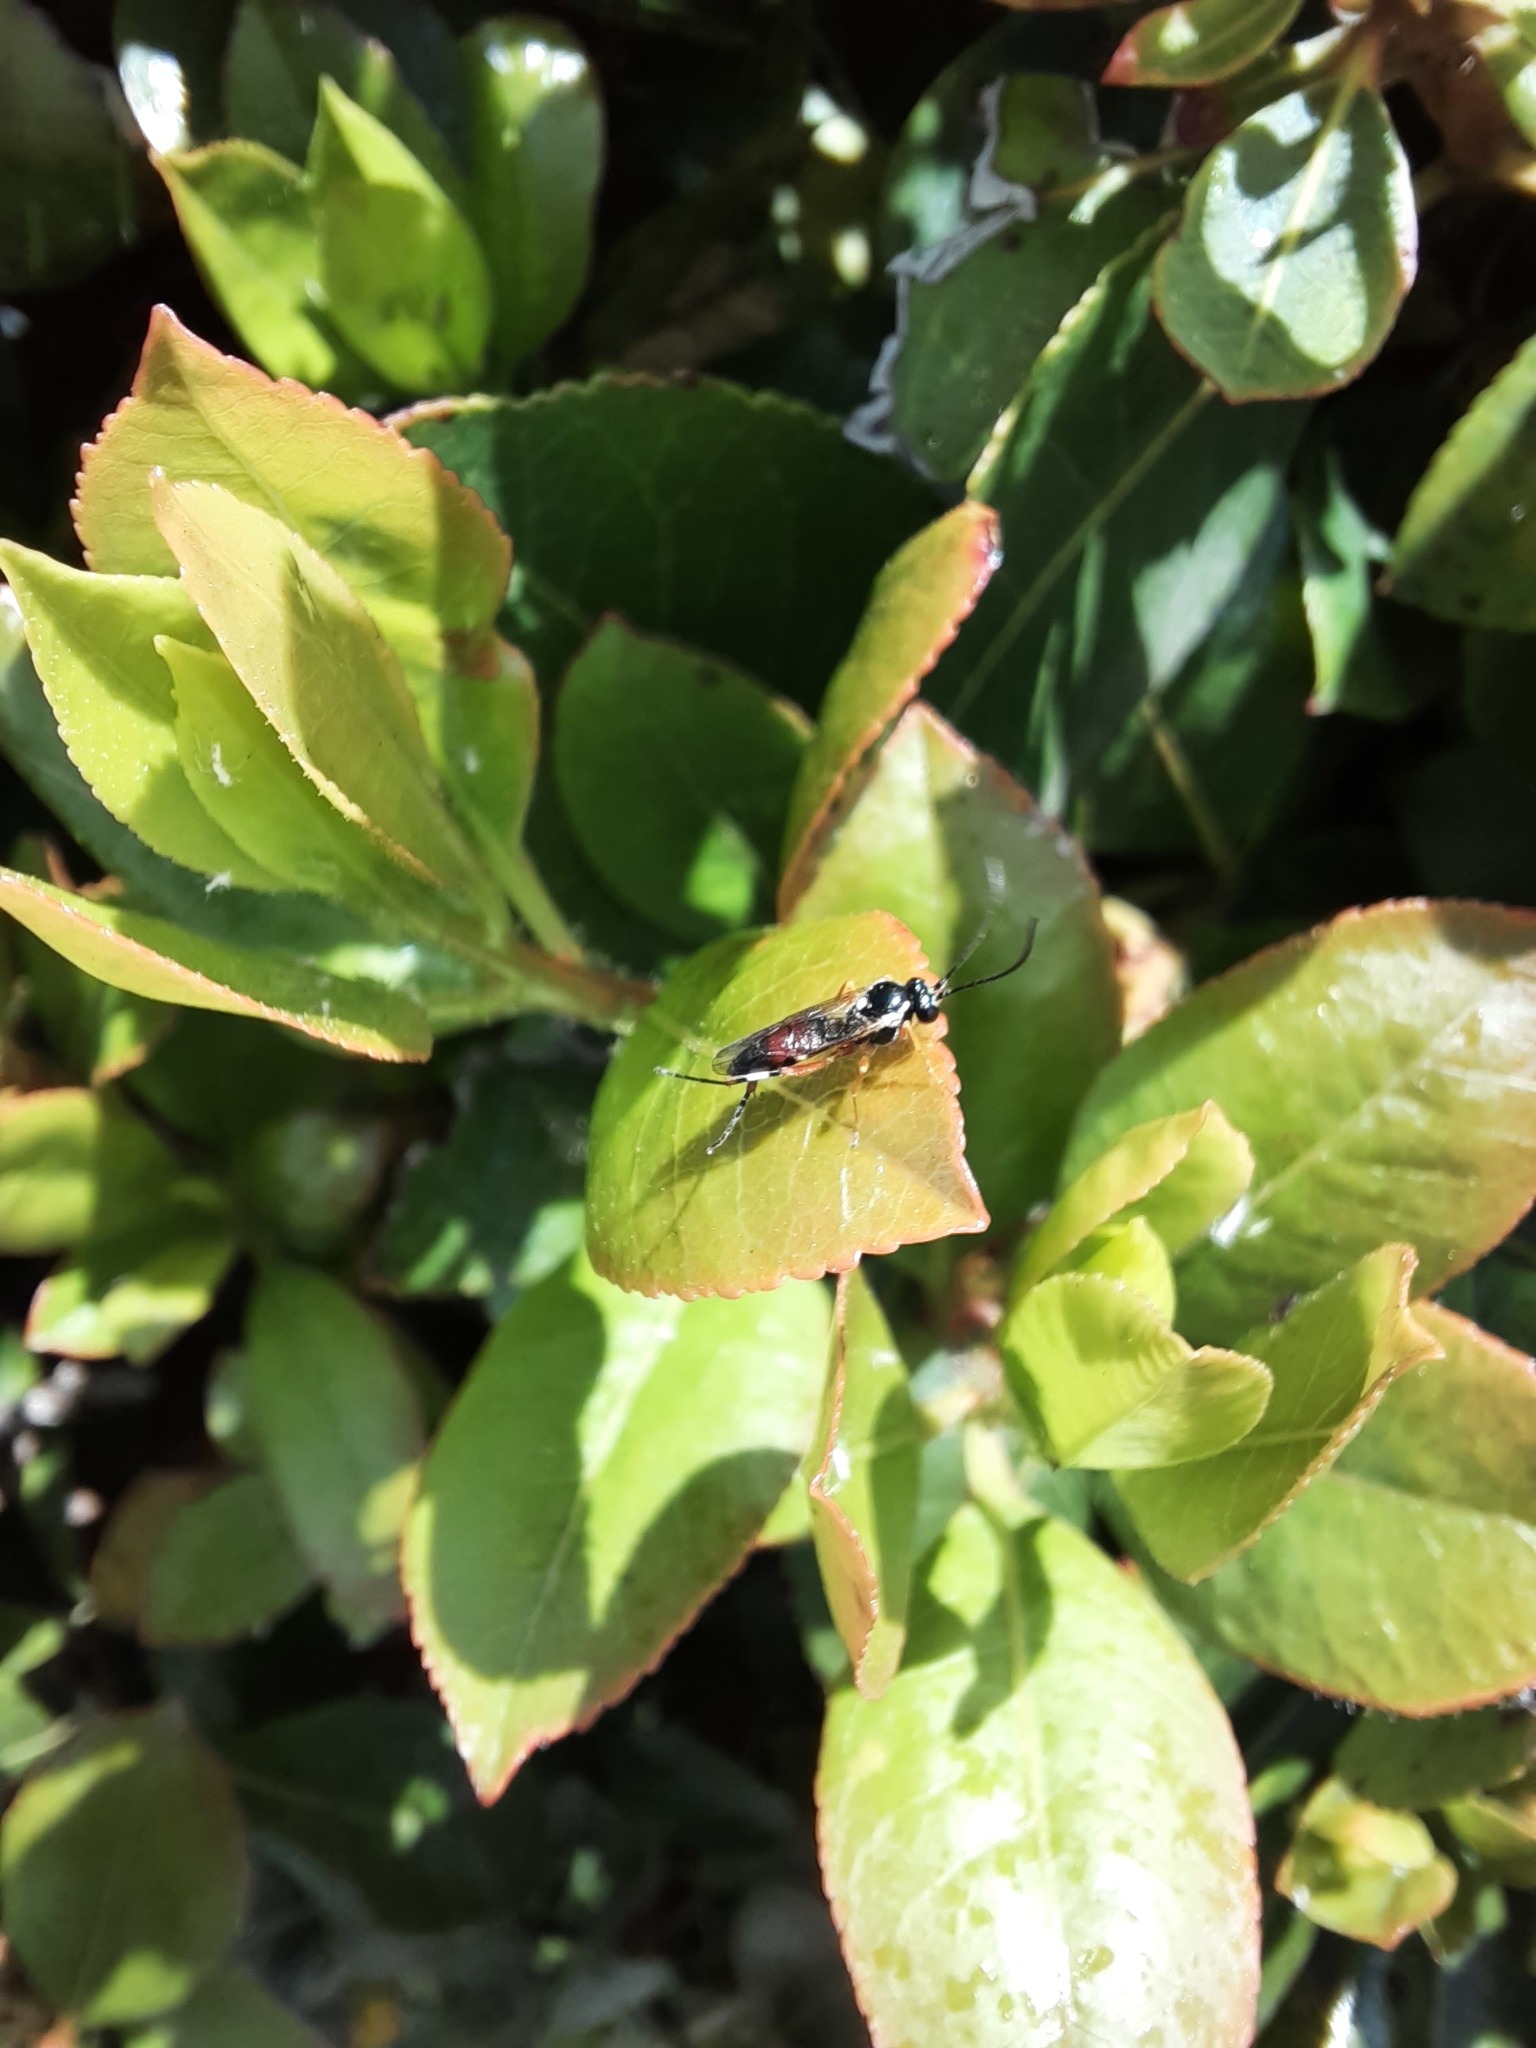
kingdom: Animalia
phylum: Arthropoda
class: Insecta
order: Hymenoptera
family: Ichneumonidae
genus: Diplazon
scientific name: Diplazon laetatorius
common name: Parasitoid wasp
